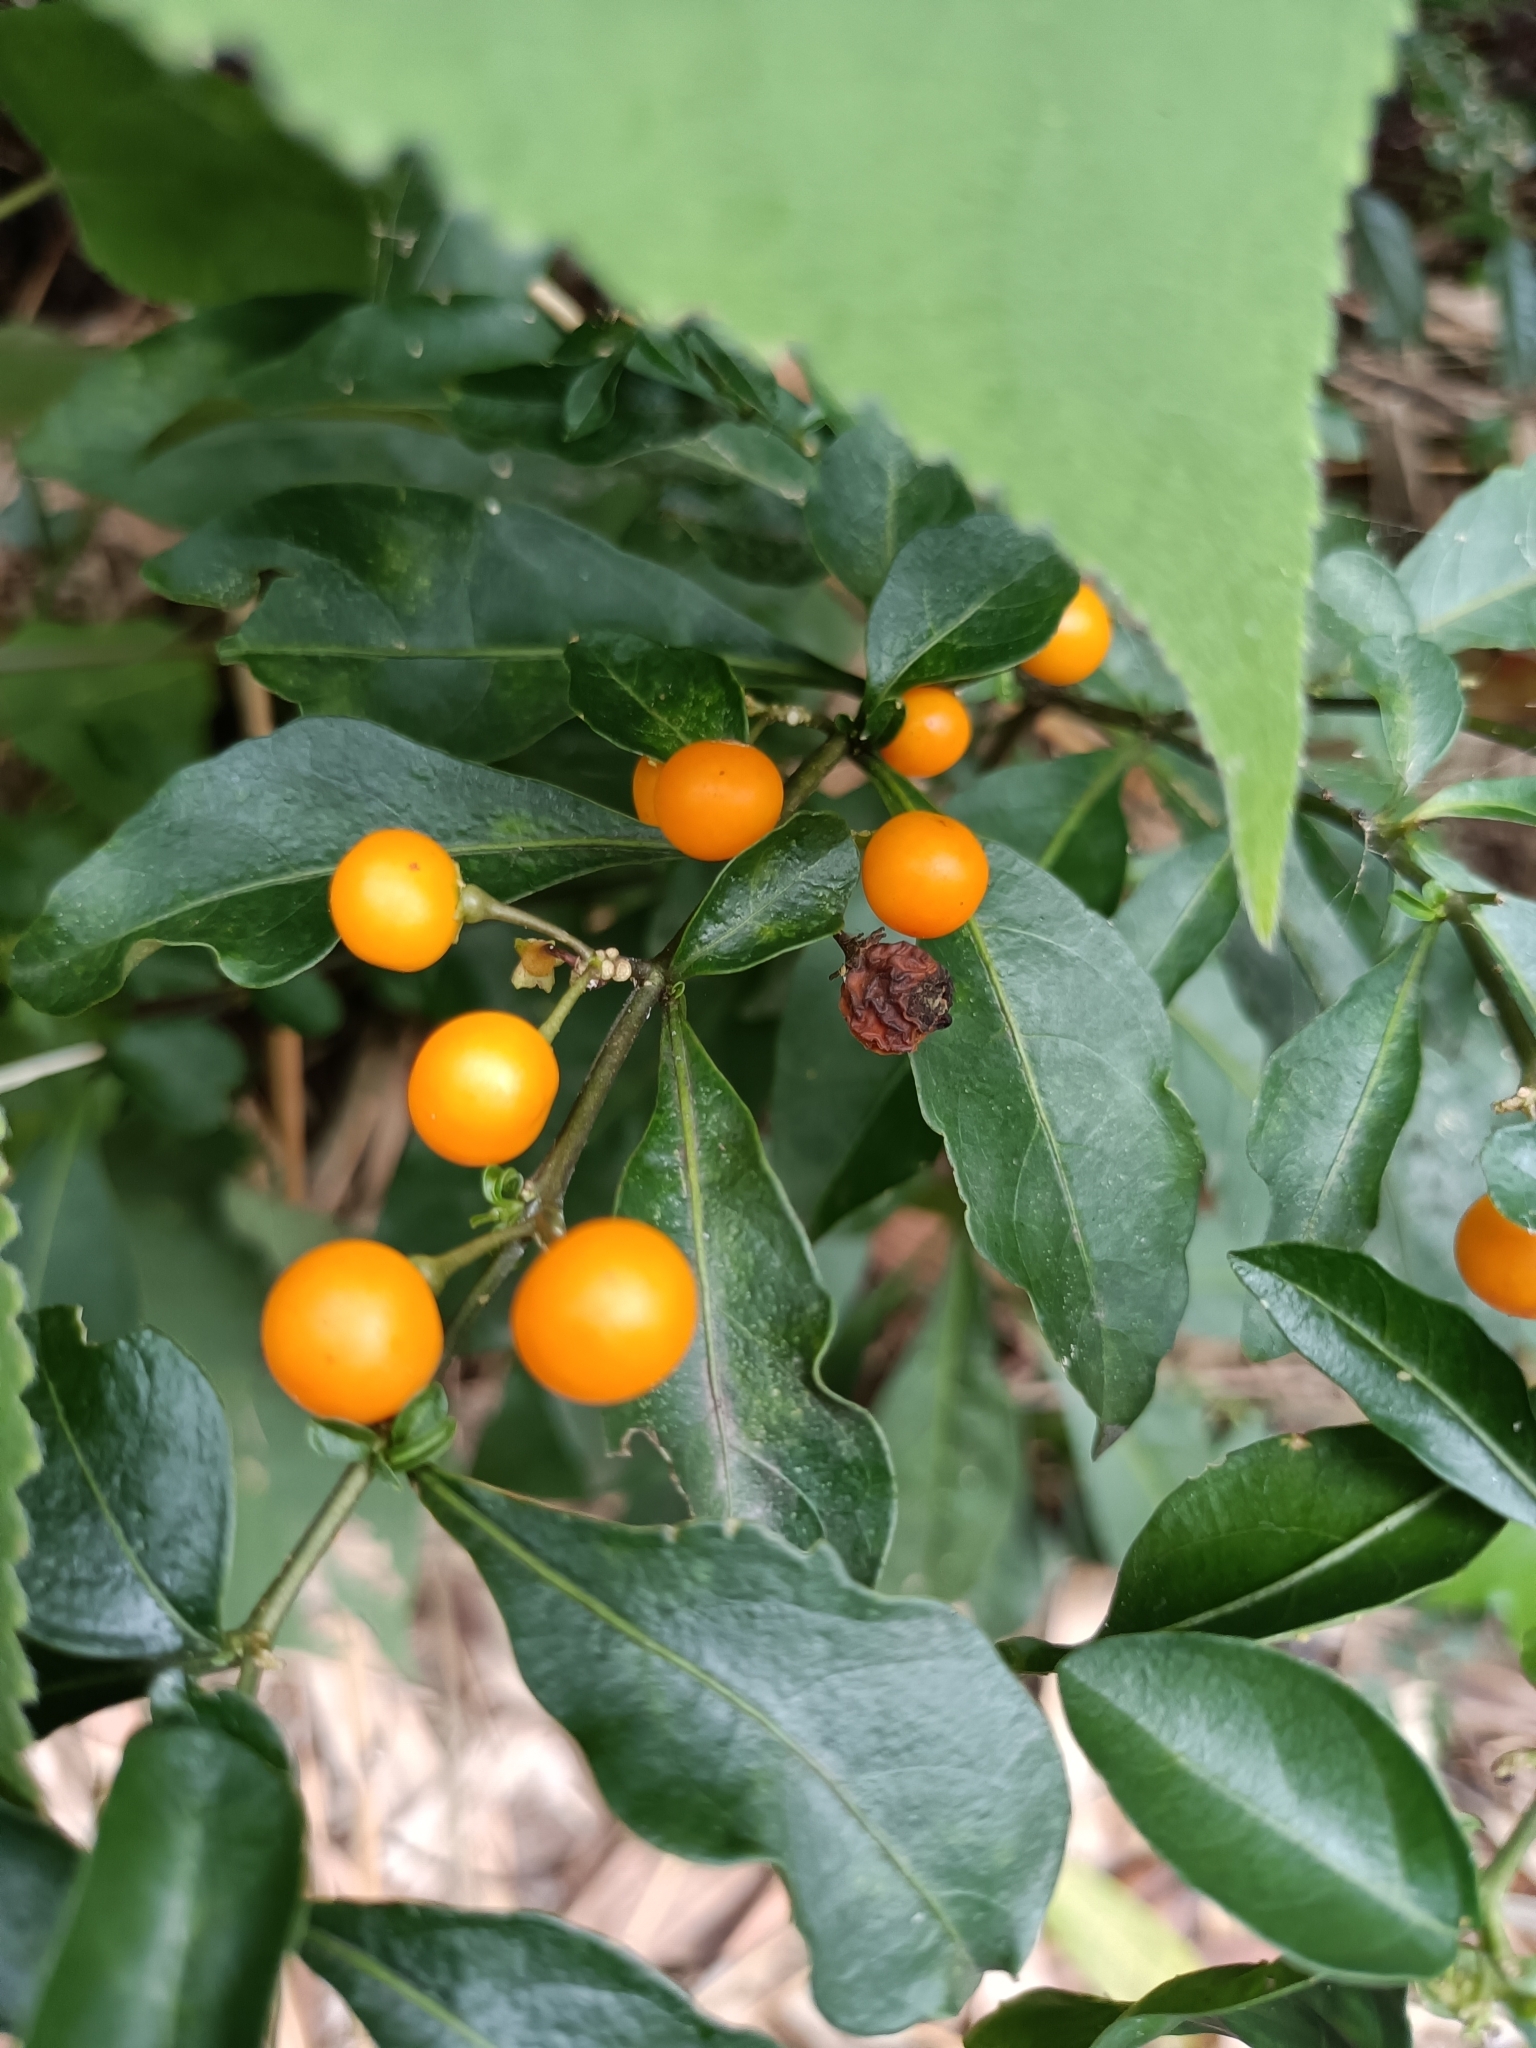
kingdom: Plantae
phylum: Tracheophyta
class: Magnoliopsida
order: Solanales
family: Solanaceae
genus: Solanum
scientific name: Solanum diphyllum
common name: Twoleaf nightshade
